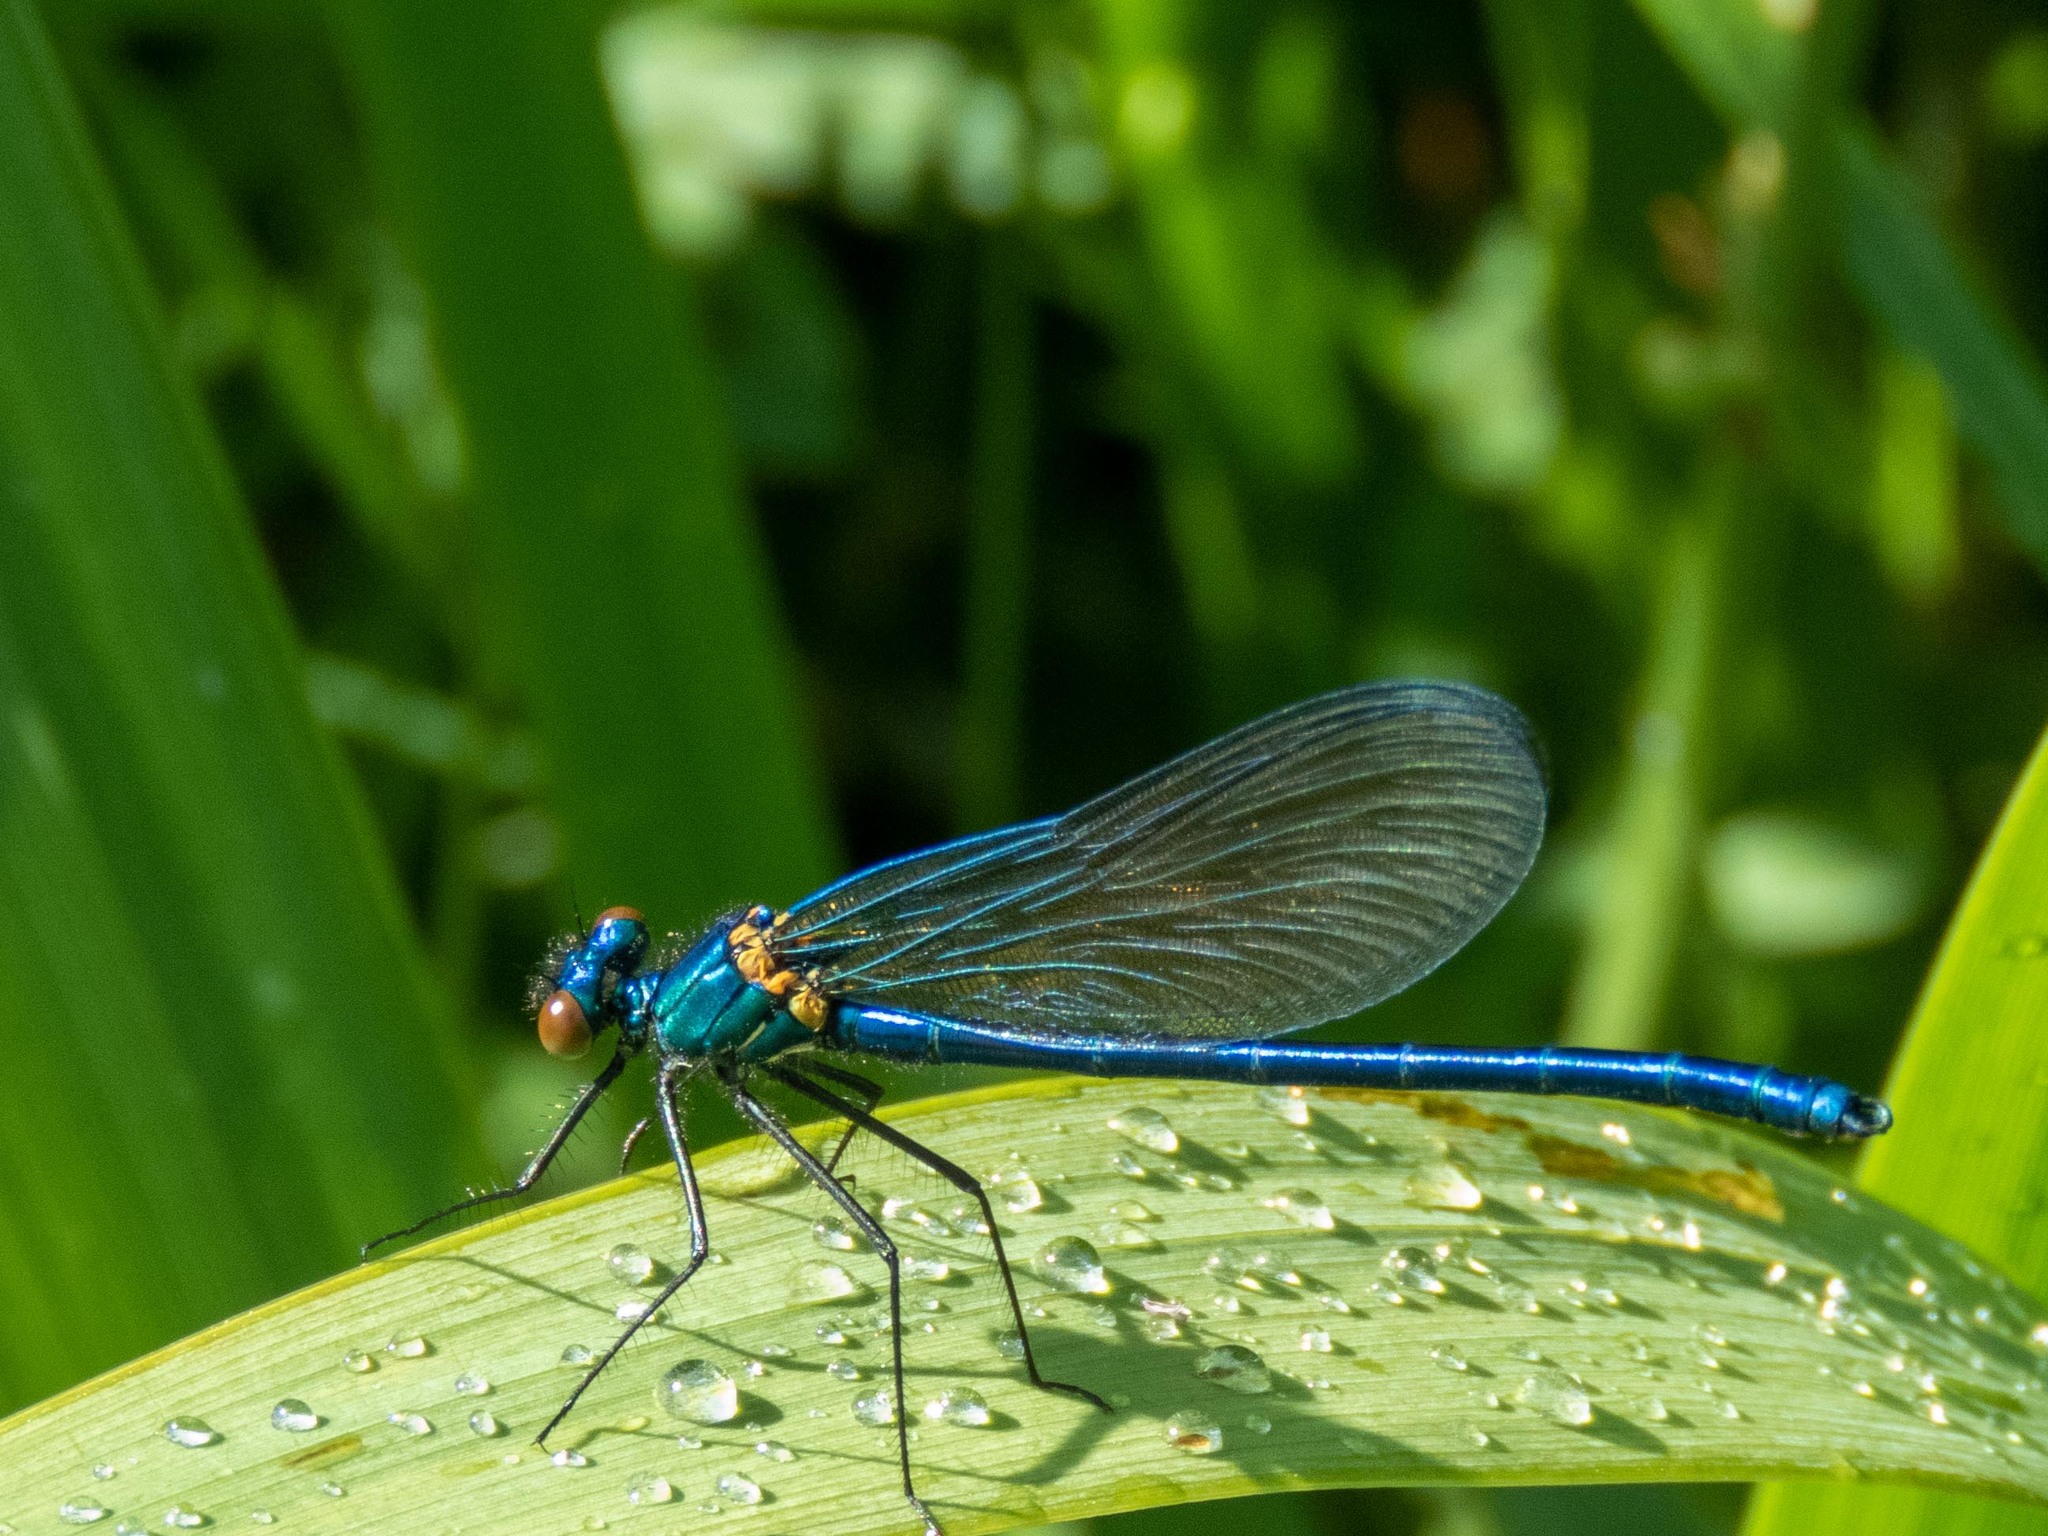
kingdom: Animalia
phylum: Arthropoda
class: Insecta
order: Odonata
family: Calopterygidae
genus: Calopteryx
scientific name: Calopteryx virgo
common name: Beautiful demoiselle
